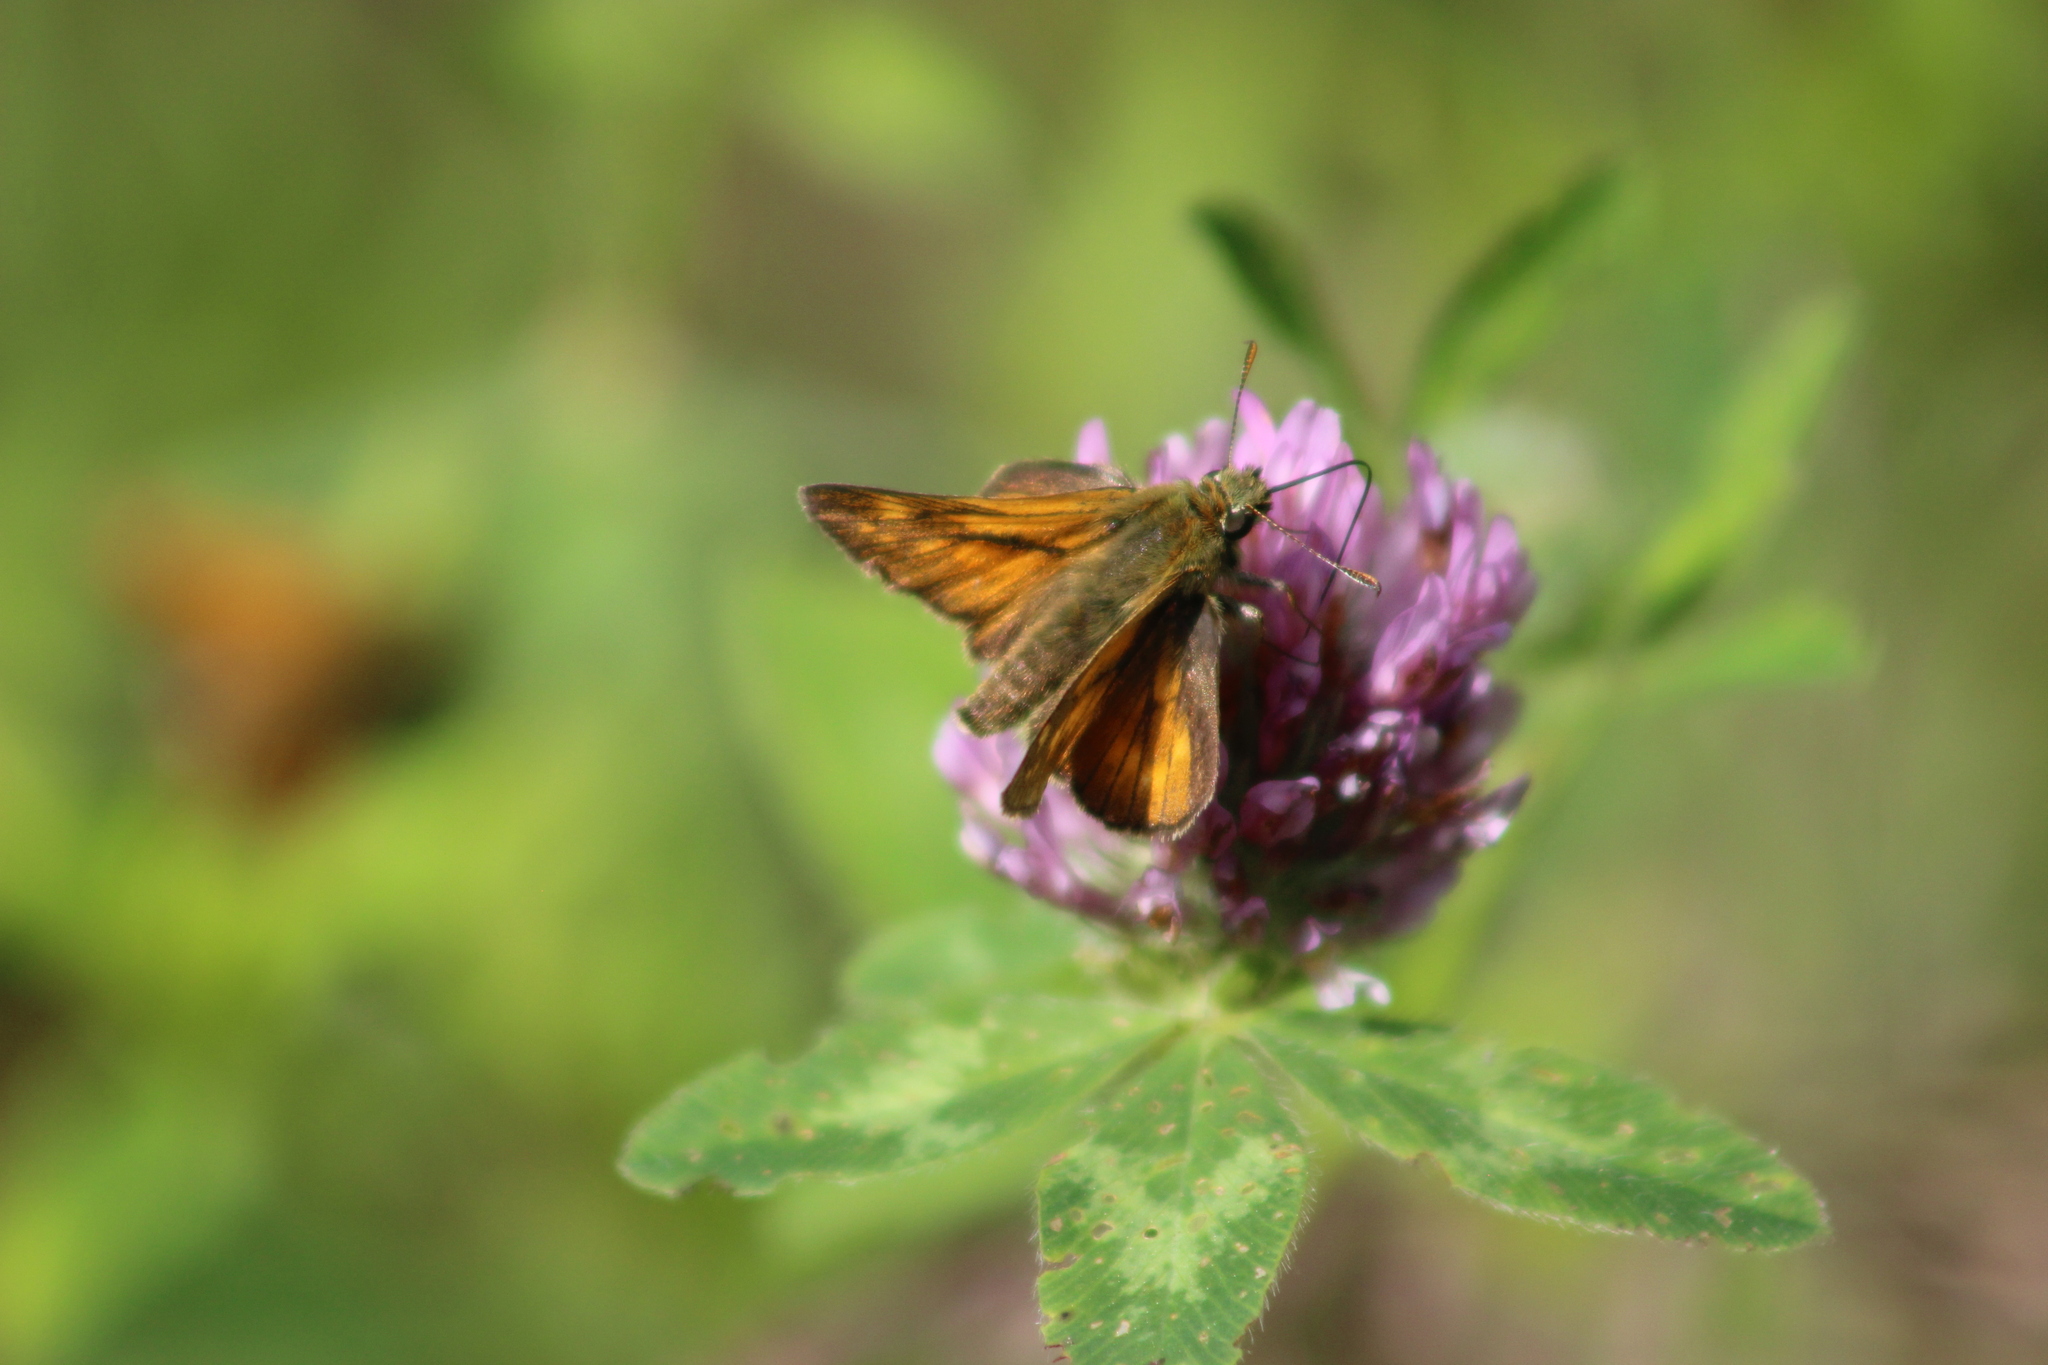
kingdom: Animalia
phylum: Arthropoda
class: Insecta
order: Lepidoptera
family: Hesperiidae
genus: Ochlodes
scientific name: Ochlodes venata
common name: Large skipper
